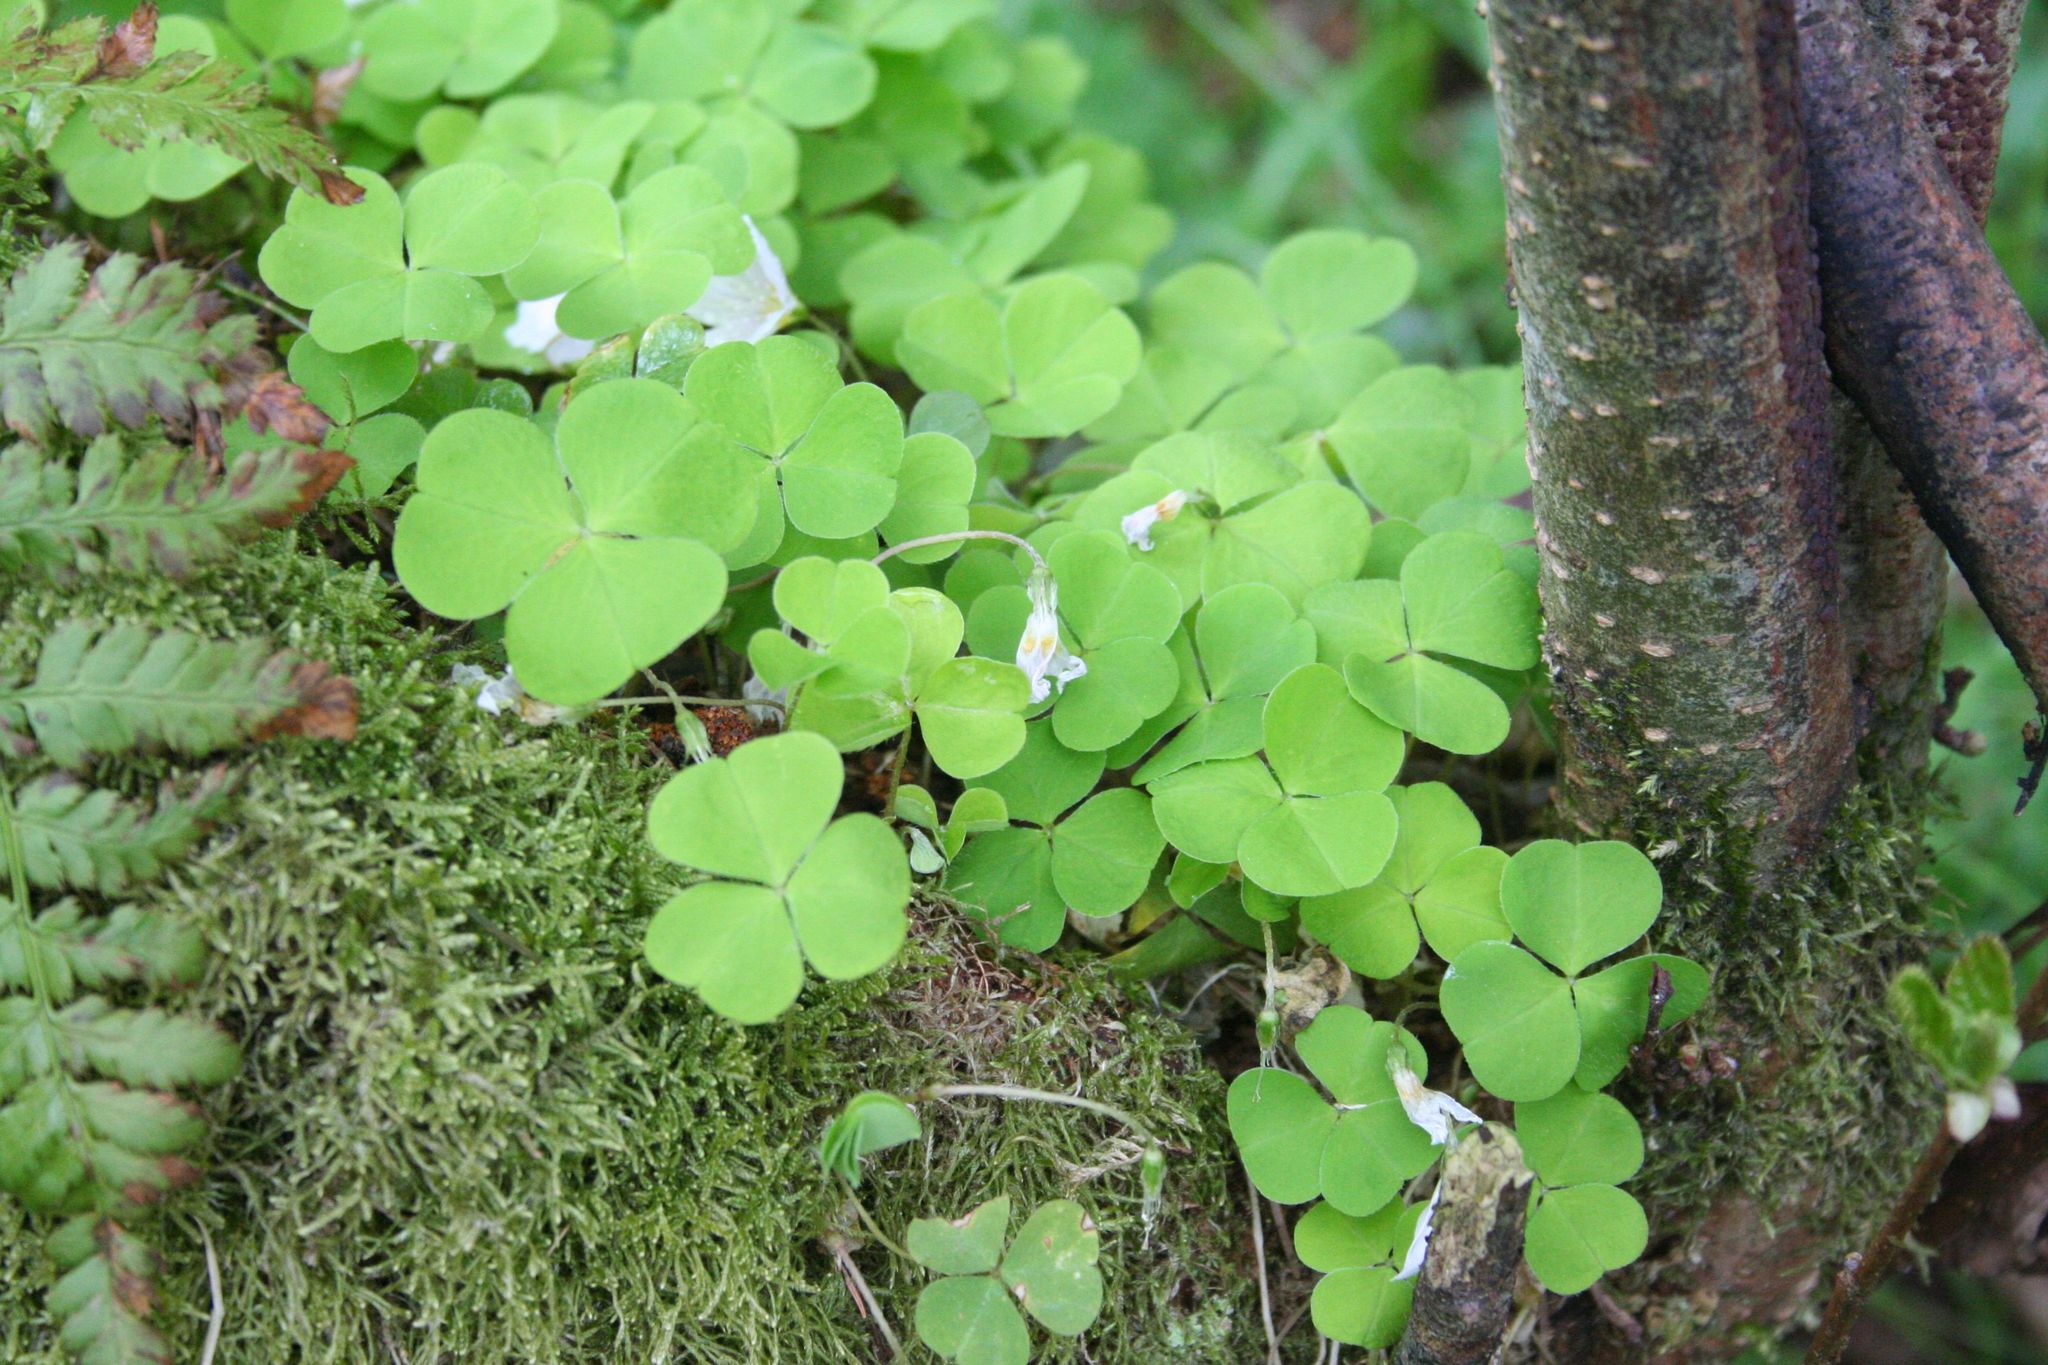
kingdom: Plantae
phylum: Tracheophyta
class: Magnoliopsida
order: Oxalidales
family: Oxalidaceae
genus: Oxalis
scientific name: Oxalis acetosella
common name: Wood-sorrel
